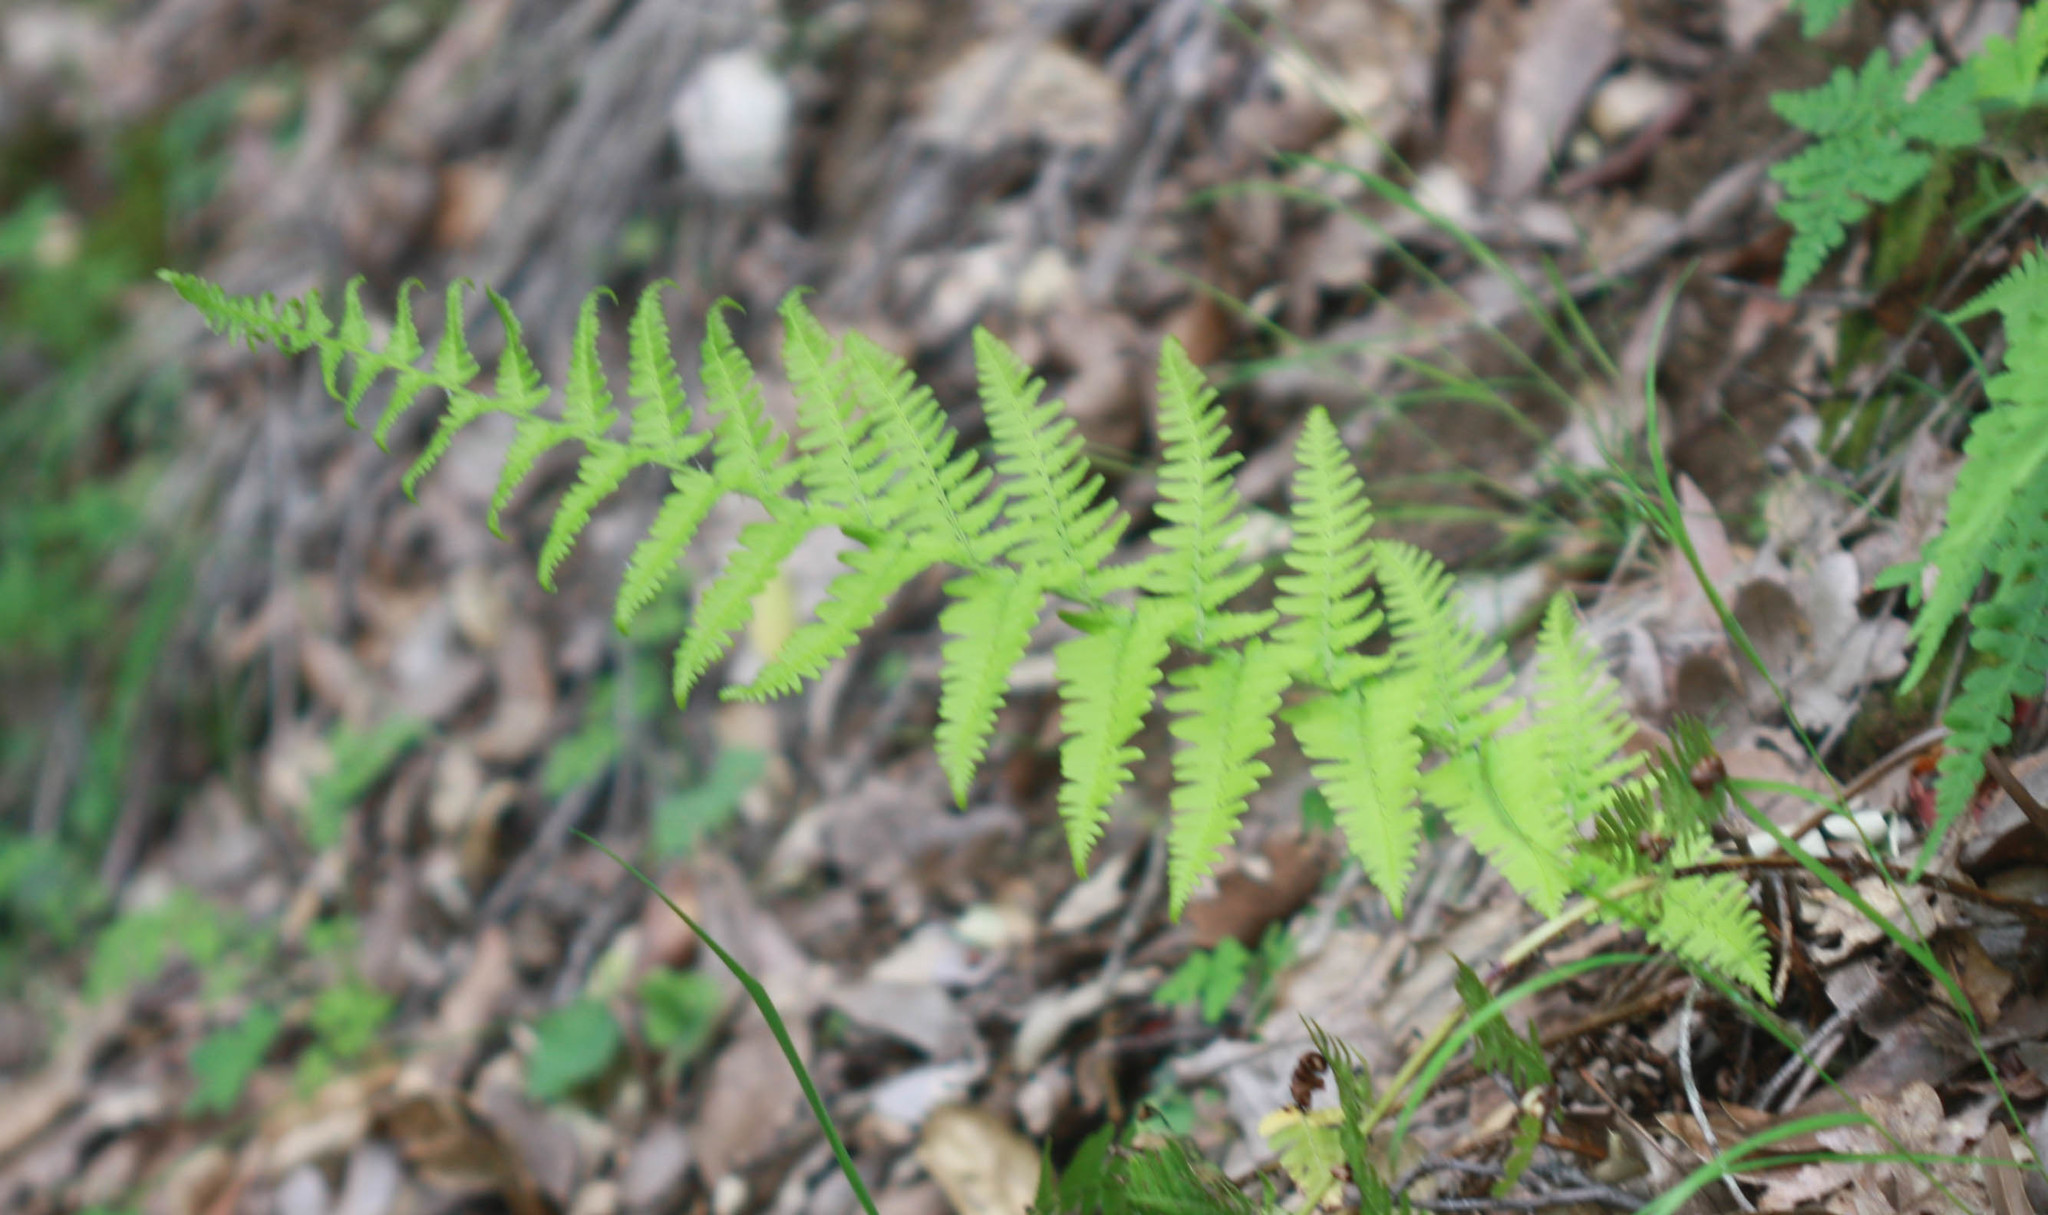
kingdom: Plantae
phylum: Tracheophyta
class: Polypodiopsida
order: Polypodiales
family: Dryopteridaceae
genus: Dryopteris
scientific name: Dryopteris arguta
